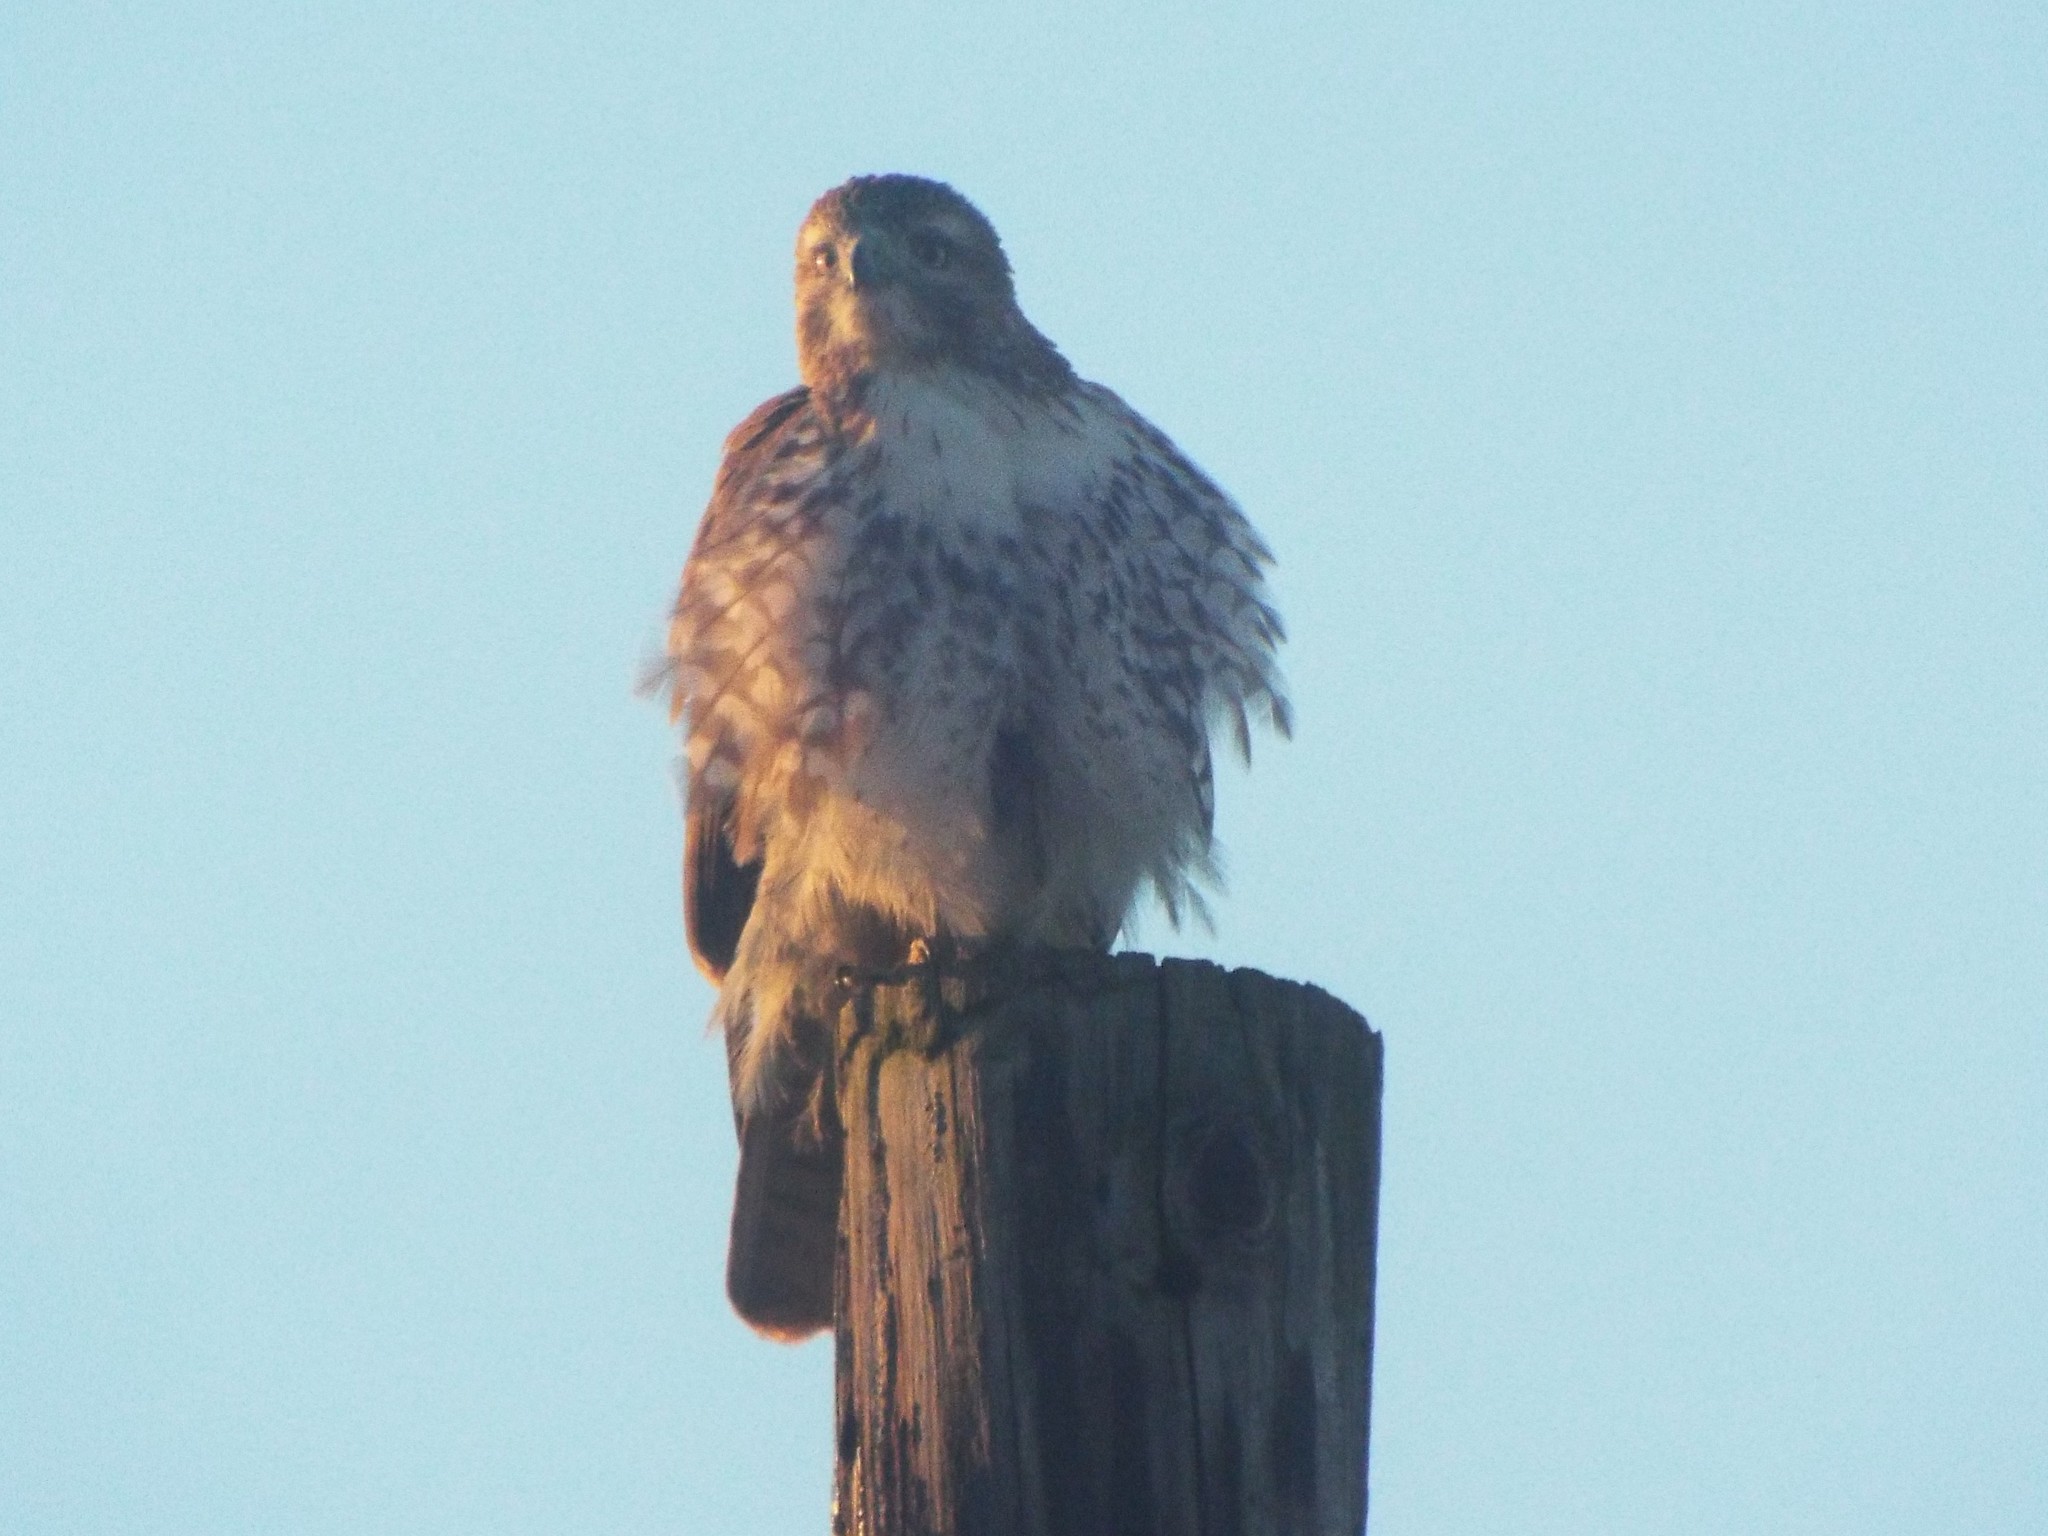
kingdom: Animalia
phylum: Chordata
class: Aves
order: Accipitriformes
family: Accipitridae
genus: Buteo
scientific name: Buteo jamaicensis
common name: Red-tailed hawk
